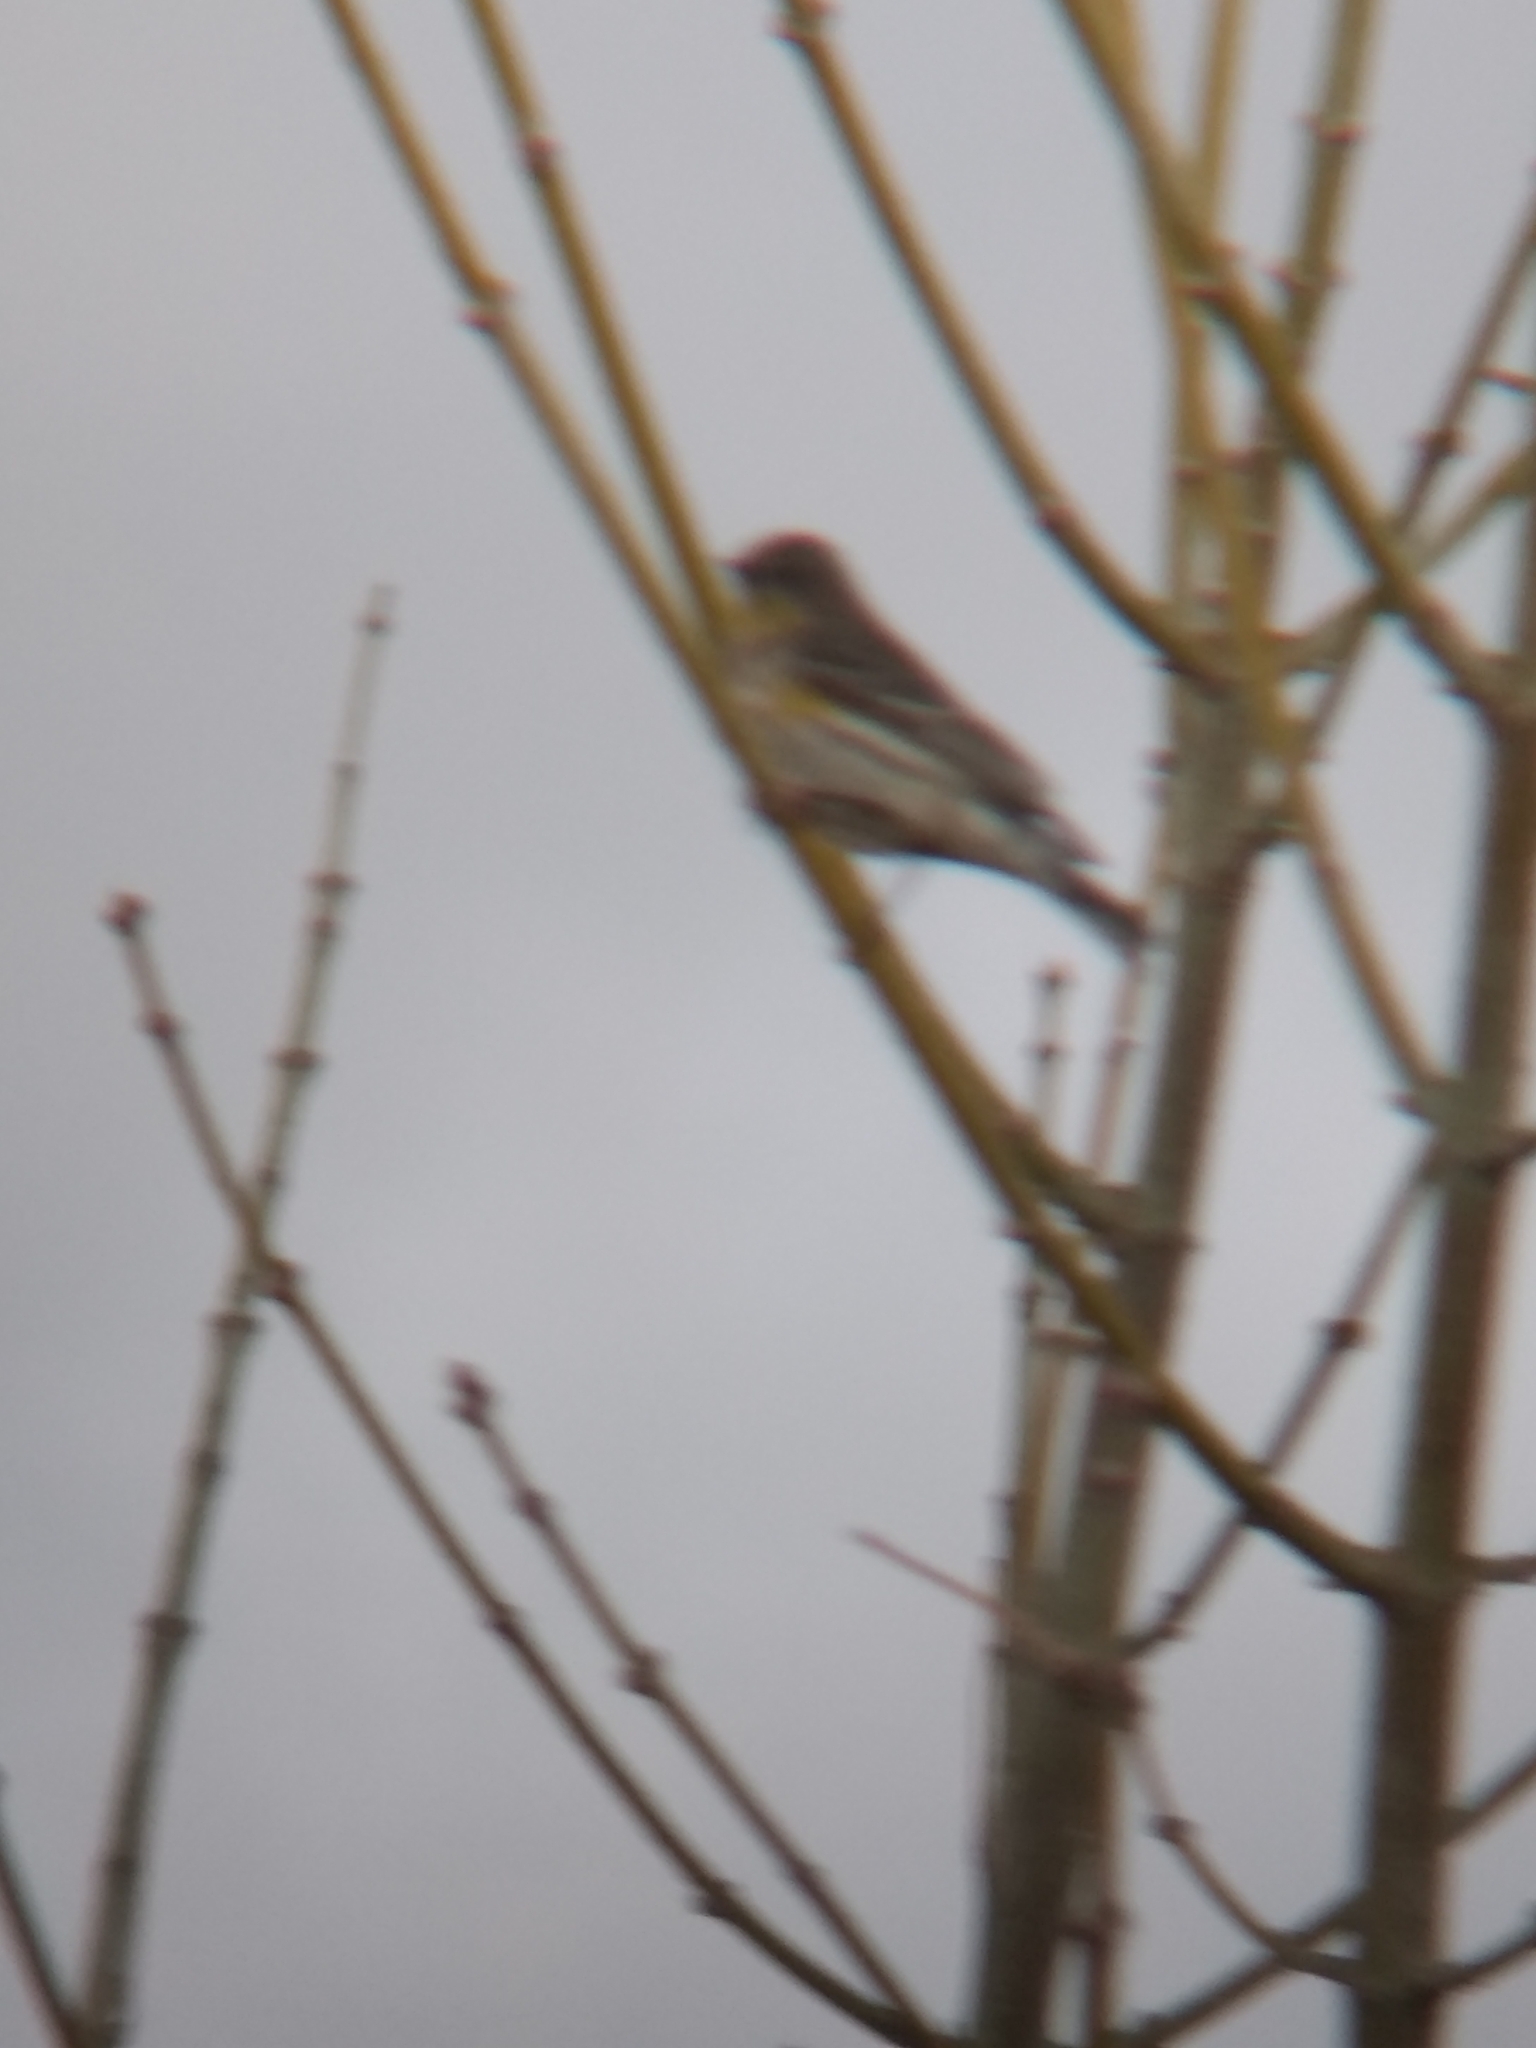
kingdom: Animalia
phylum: Chordata
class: Aves
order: Passeriformes
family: Parulidae
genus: Setophaga
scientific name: Setophaga coronata
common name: Myrtle warbler
